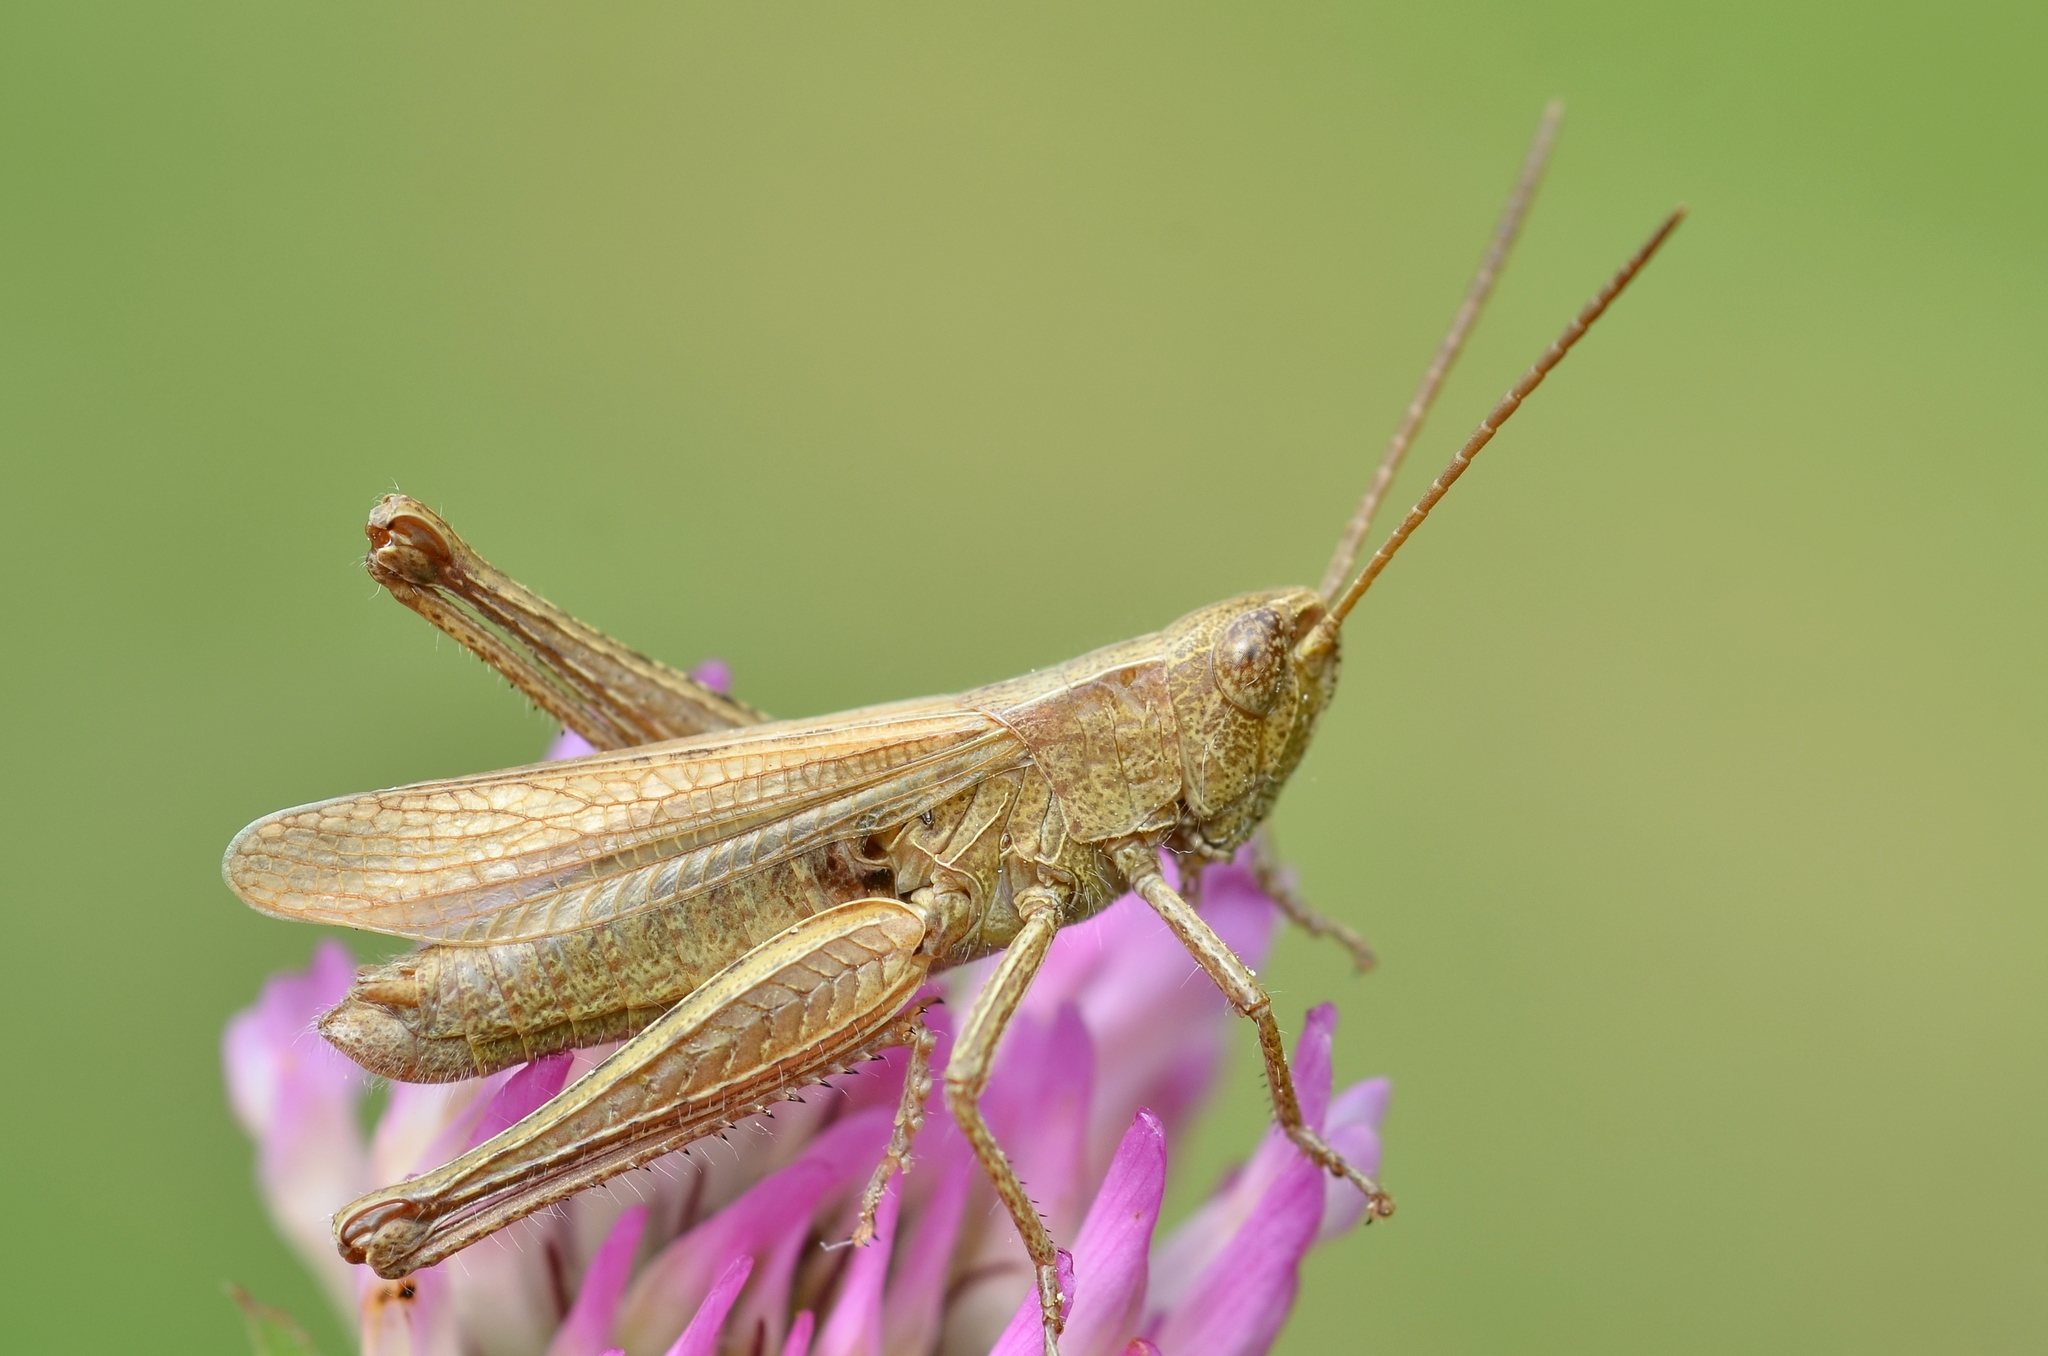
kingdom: Animalia
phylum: Arthropoda
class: Insecta
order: Orthoptera
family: Acrididae
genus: Chorthippus
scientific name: Chorthippus dorsatus
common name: Steppe grasshopper
